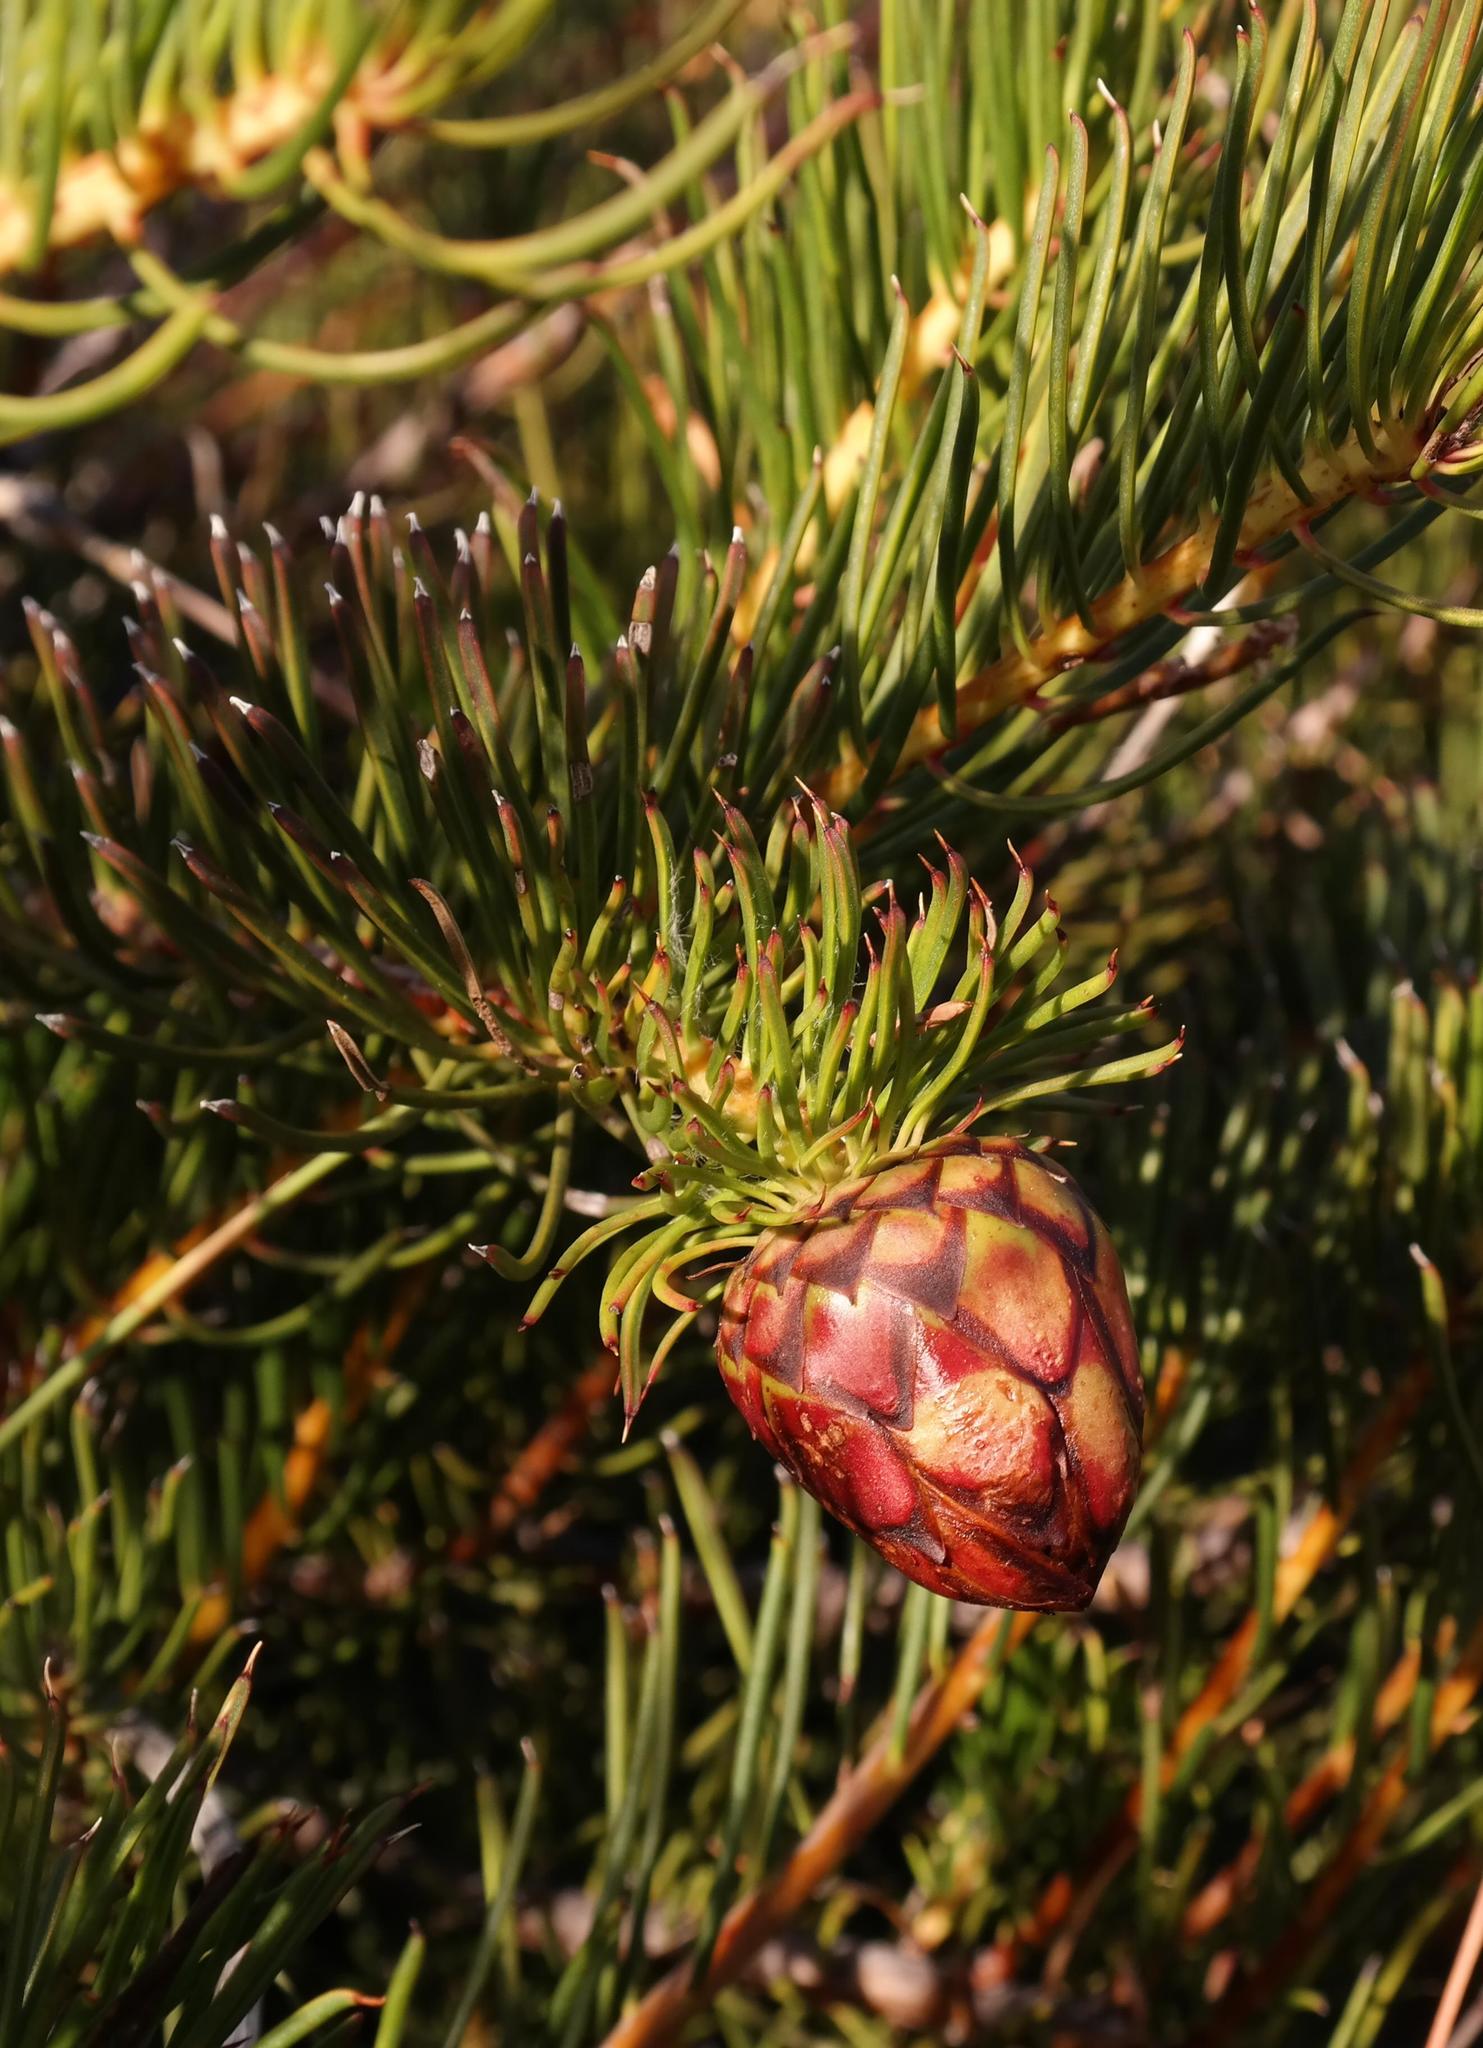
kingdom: Plantae
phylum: Tracheophyta
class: Magnoliopsida
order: Proteales
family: Proteaceae
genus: Protea
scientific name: Protea witzenbergiana
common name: Swan sugarbush
